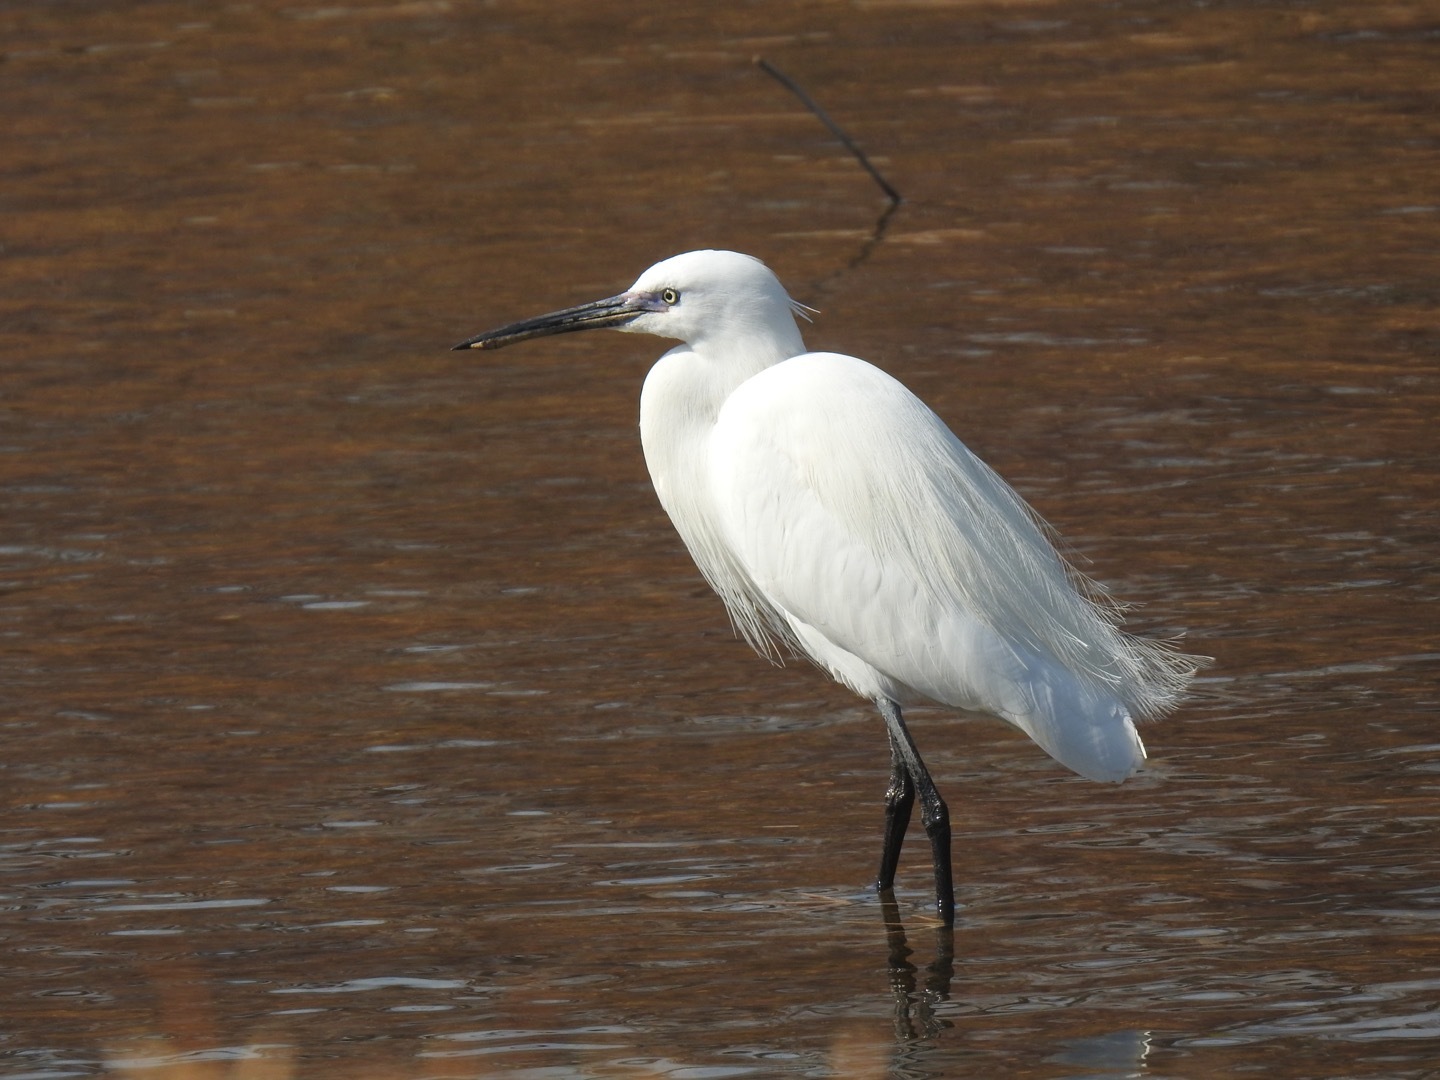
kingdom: Animalia
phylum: Chordata
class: Aves
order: Pelecaniformes
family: Ardeidae
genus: Egretta
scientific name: Egretta garzetta
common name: Little egret
